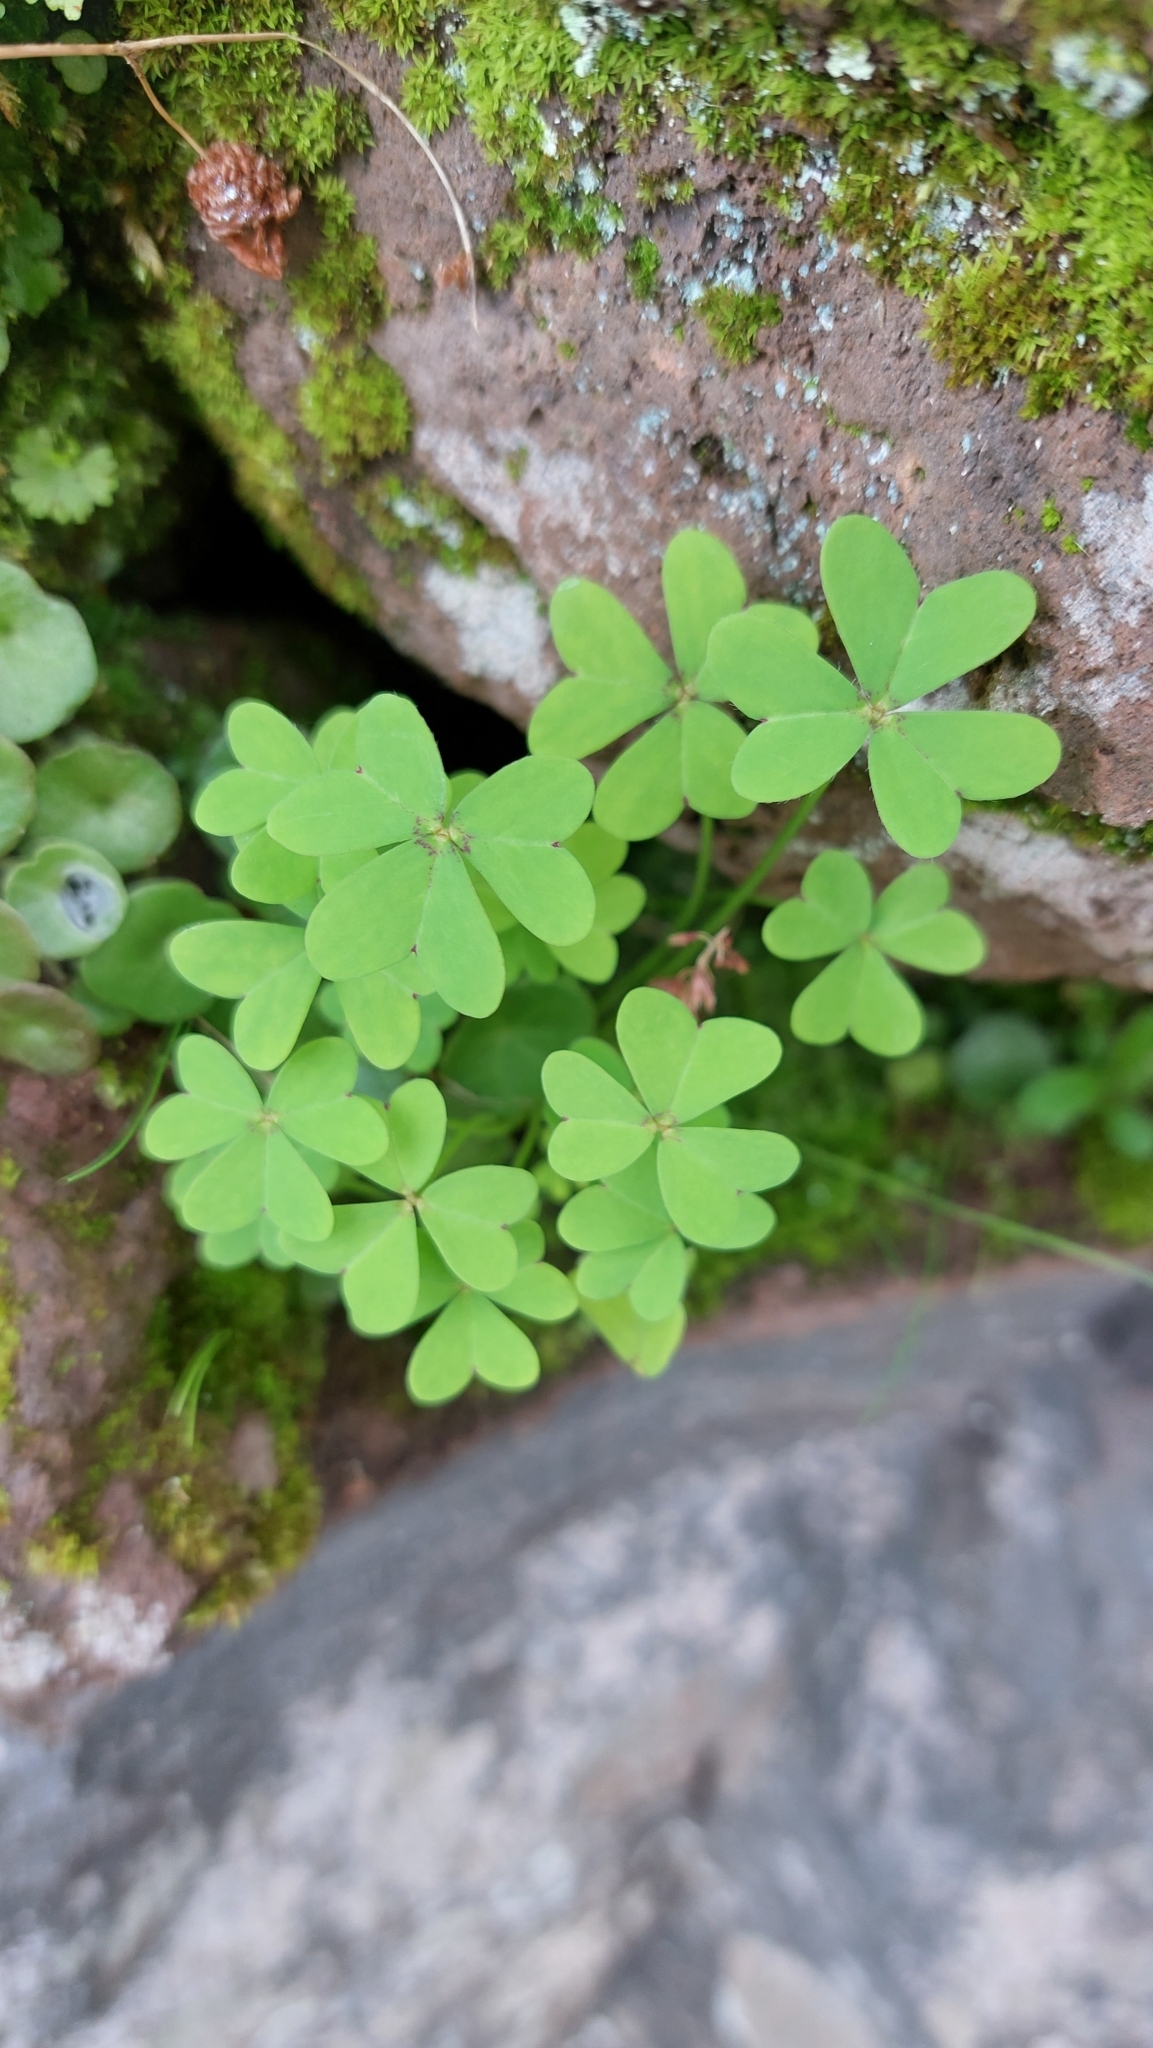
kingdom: Plantae
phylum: Tracheophyta
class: Magnoliopsida
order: Oxalidales
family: Oxalidaceae
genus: Oxalis
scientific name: Oxalis pes-caprae
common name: Bermuda-buttercup
